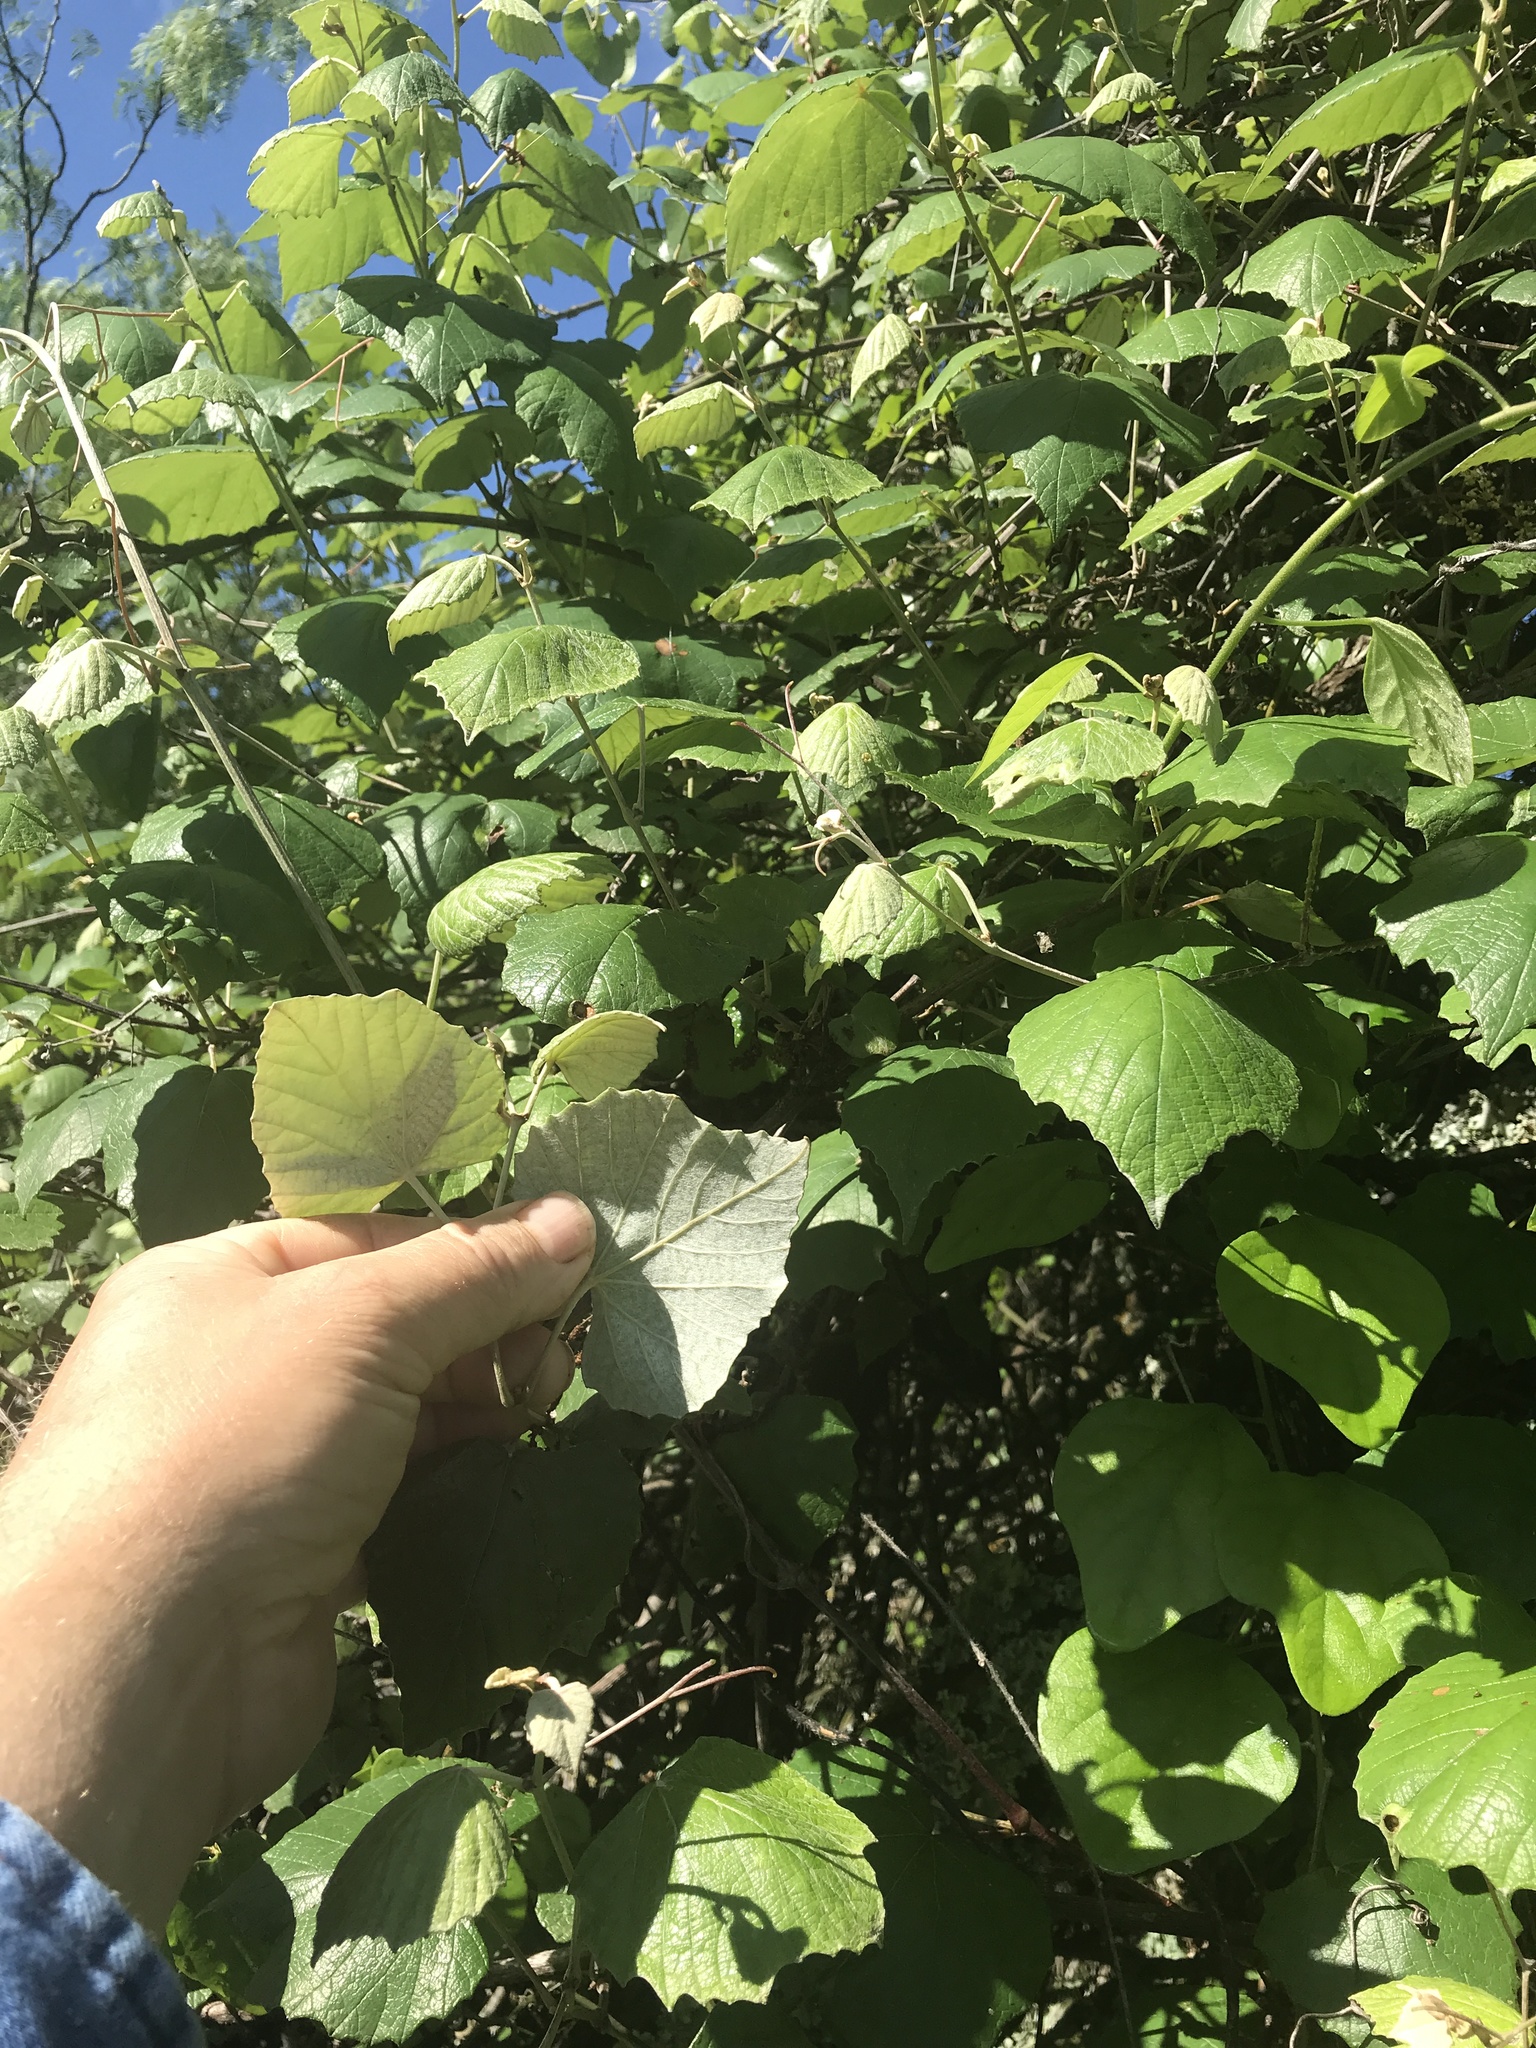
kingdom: Plantae
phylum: Tracheophyta
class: Magnoliopsida
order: Vitales
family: Vitaceae
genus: Vitis
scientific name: Vitis mustangensis
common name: Mustang grape
